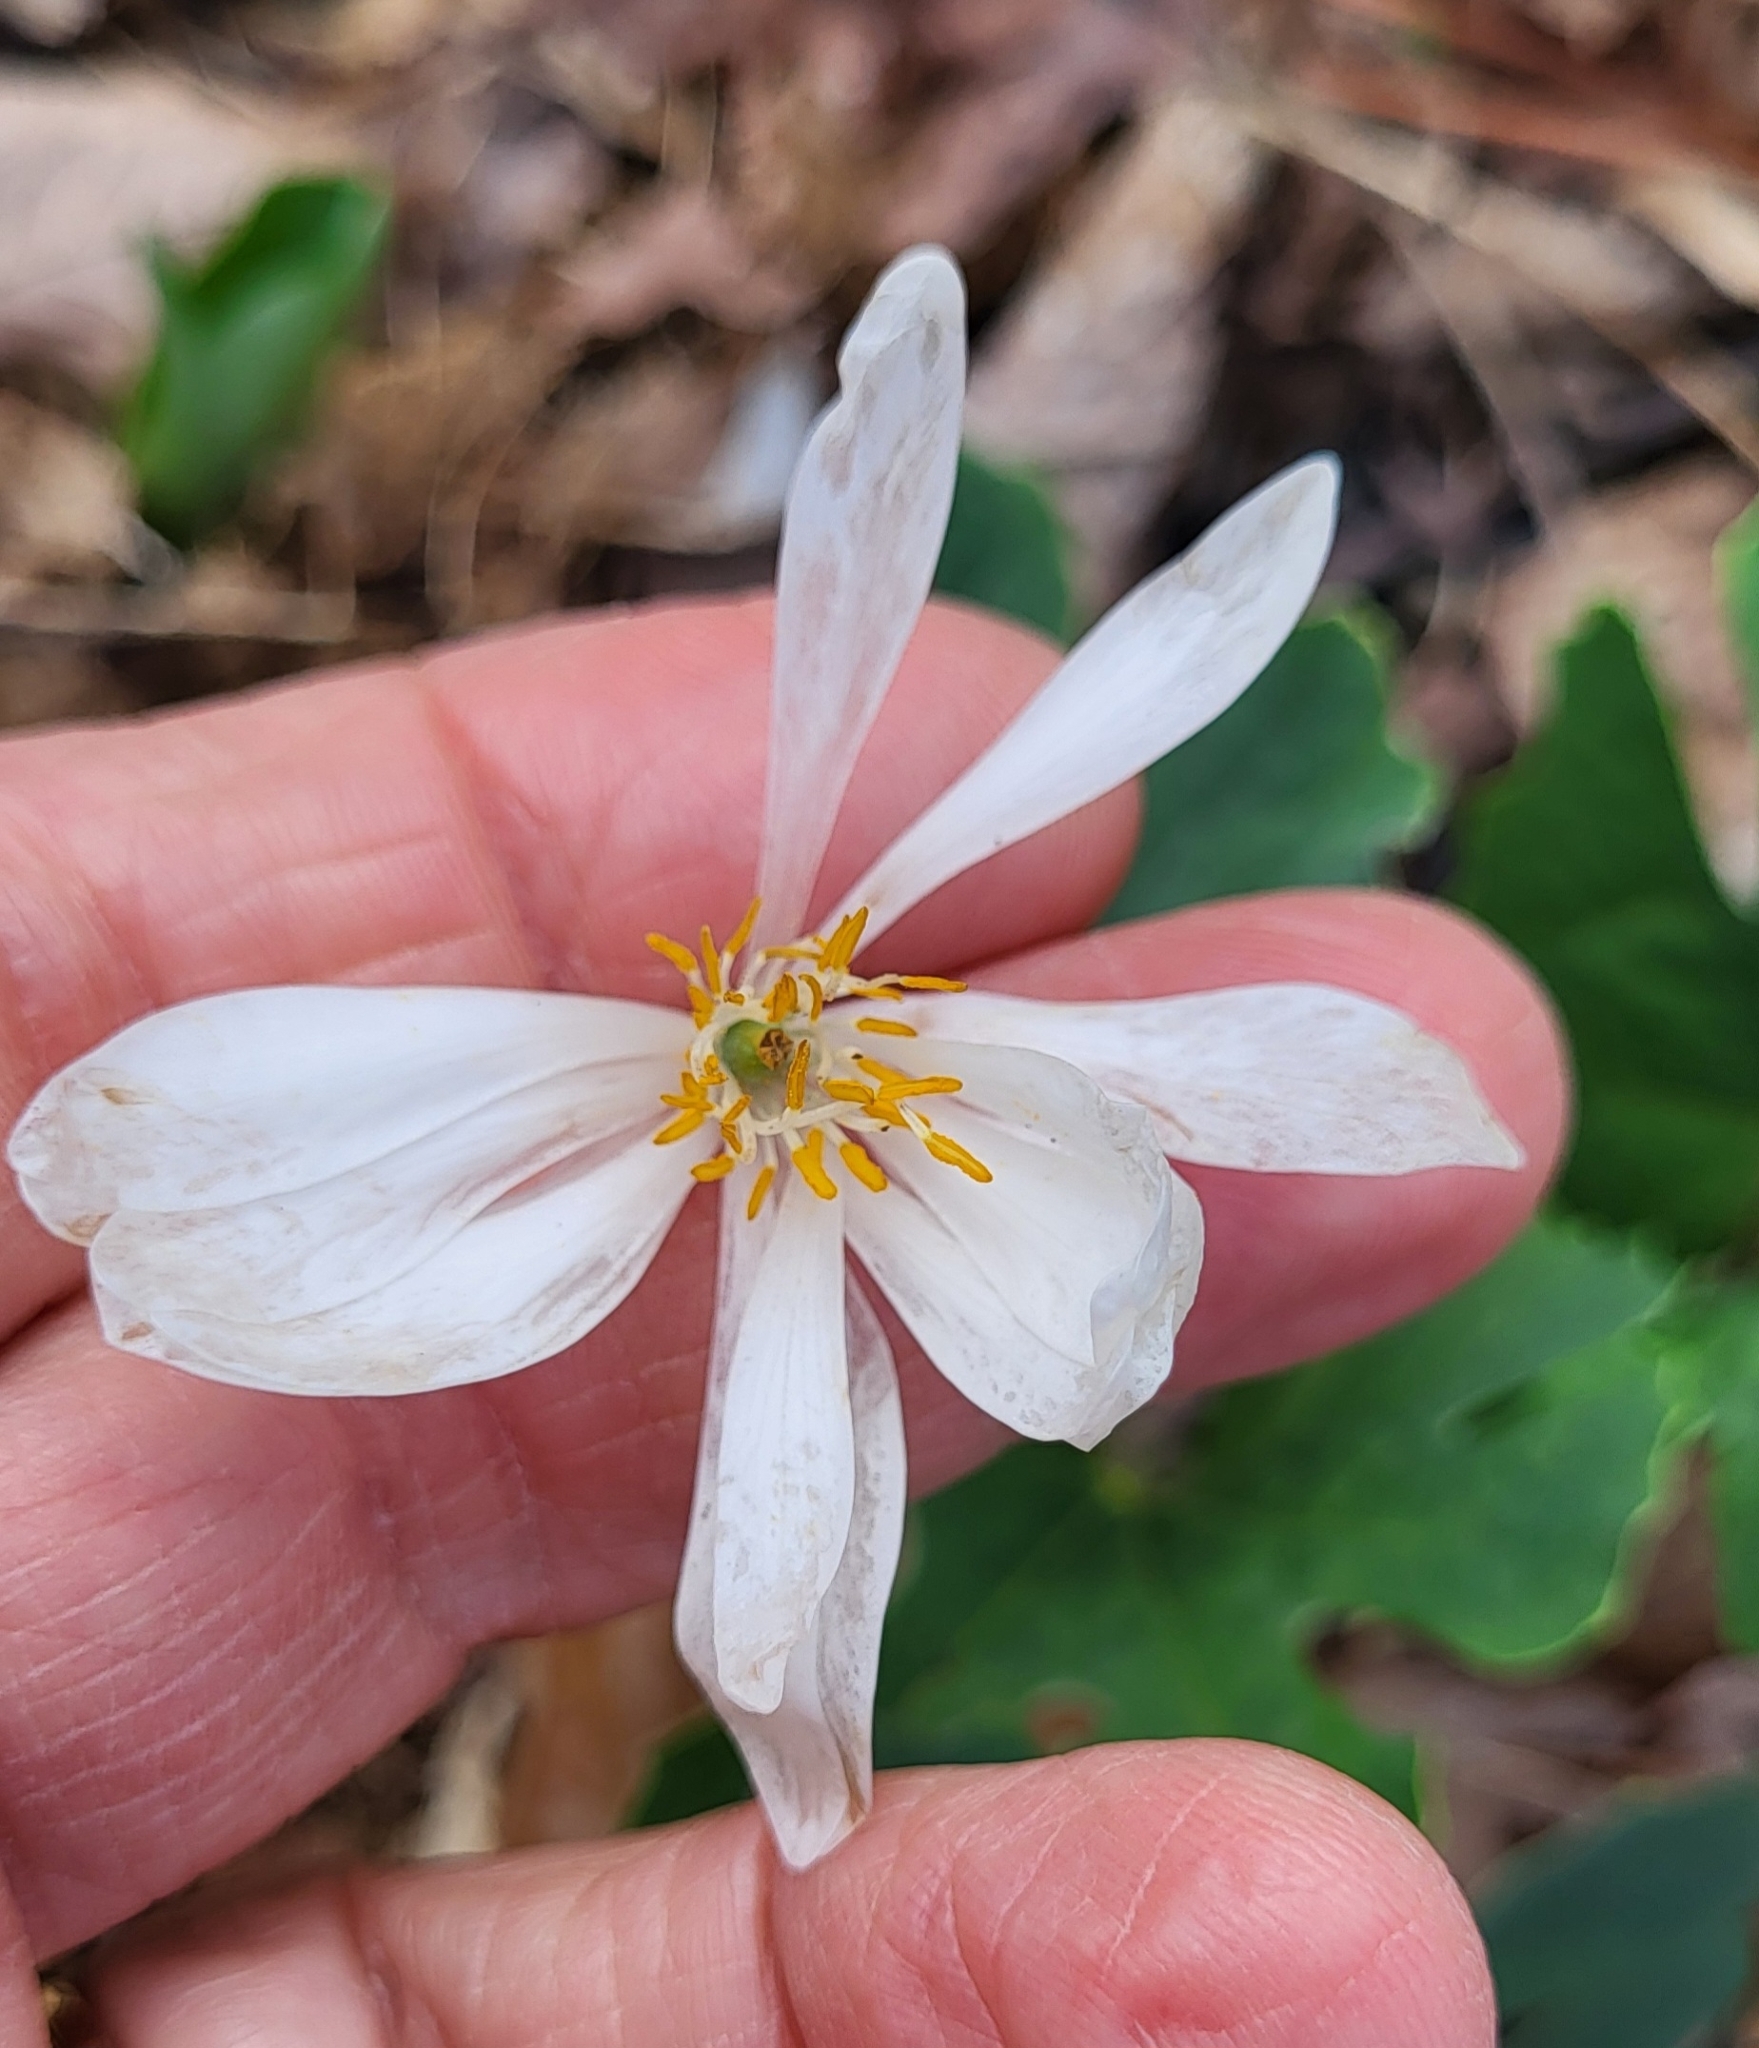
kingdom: Plantae
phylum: Tracheophyta
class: Magnoliopsida
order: Ranunculales
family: Papaveraceae
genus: Sanguinaria
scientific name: Sanguinaria canadensis
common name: Bloodroot
